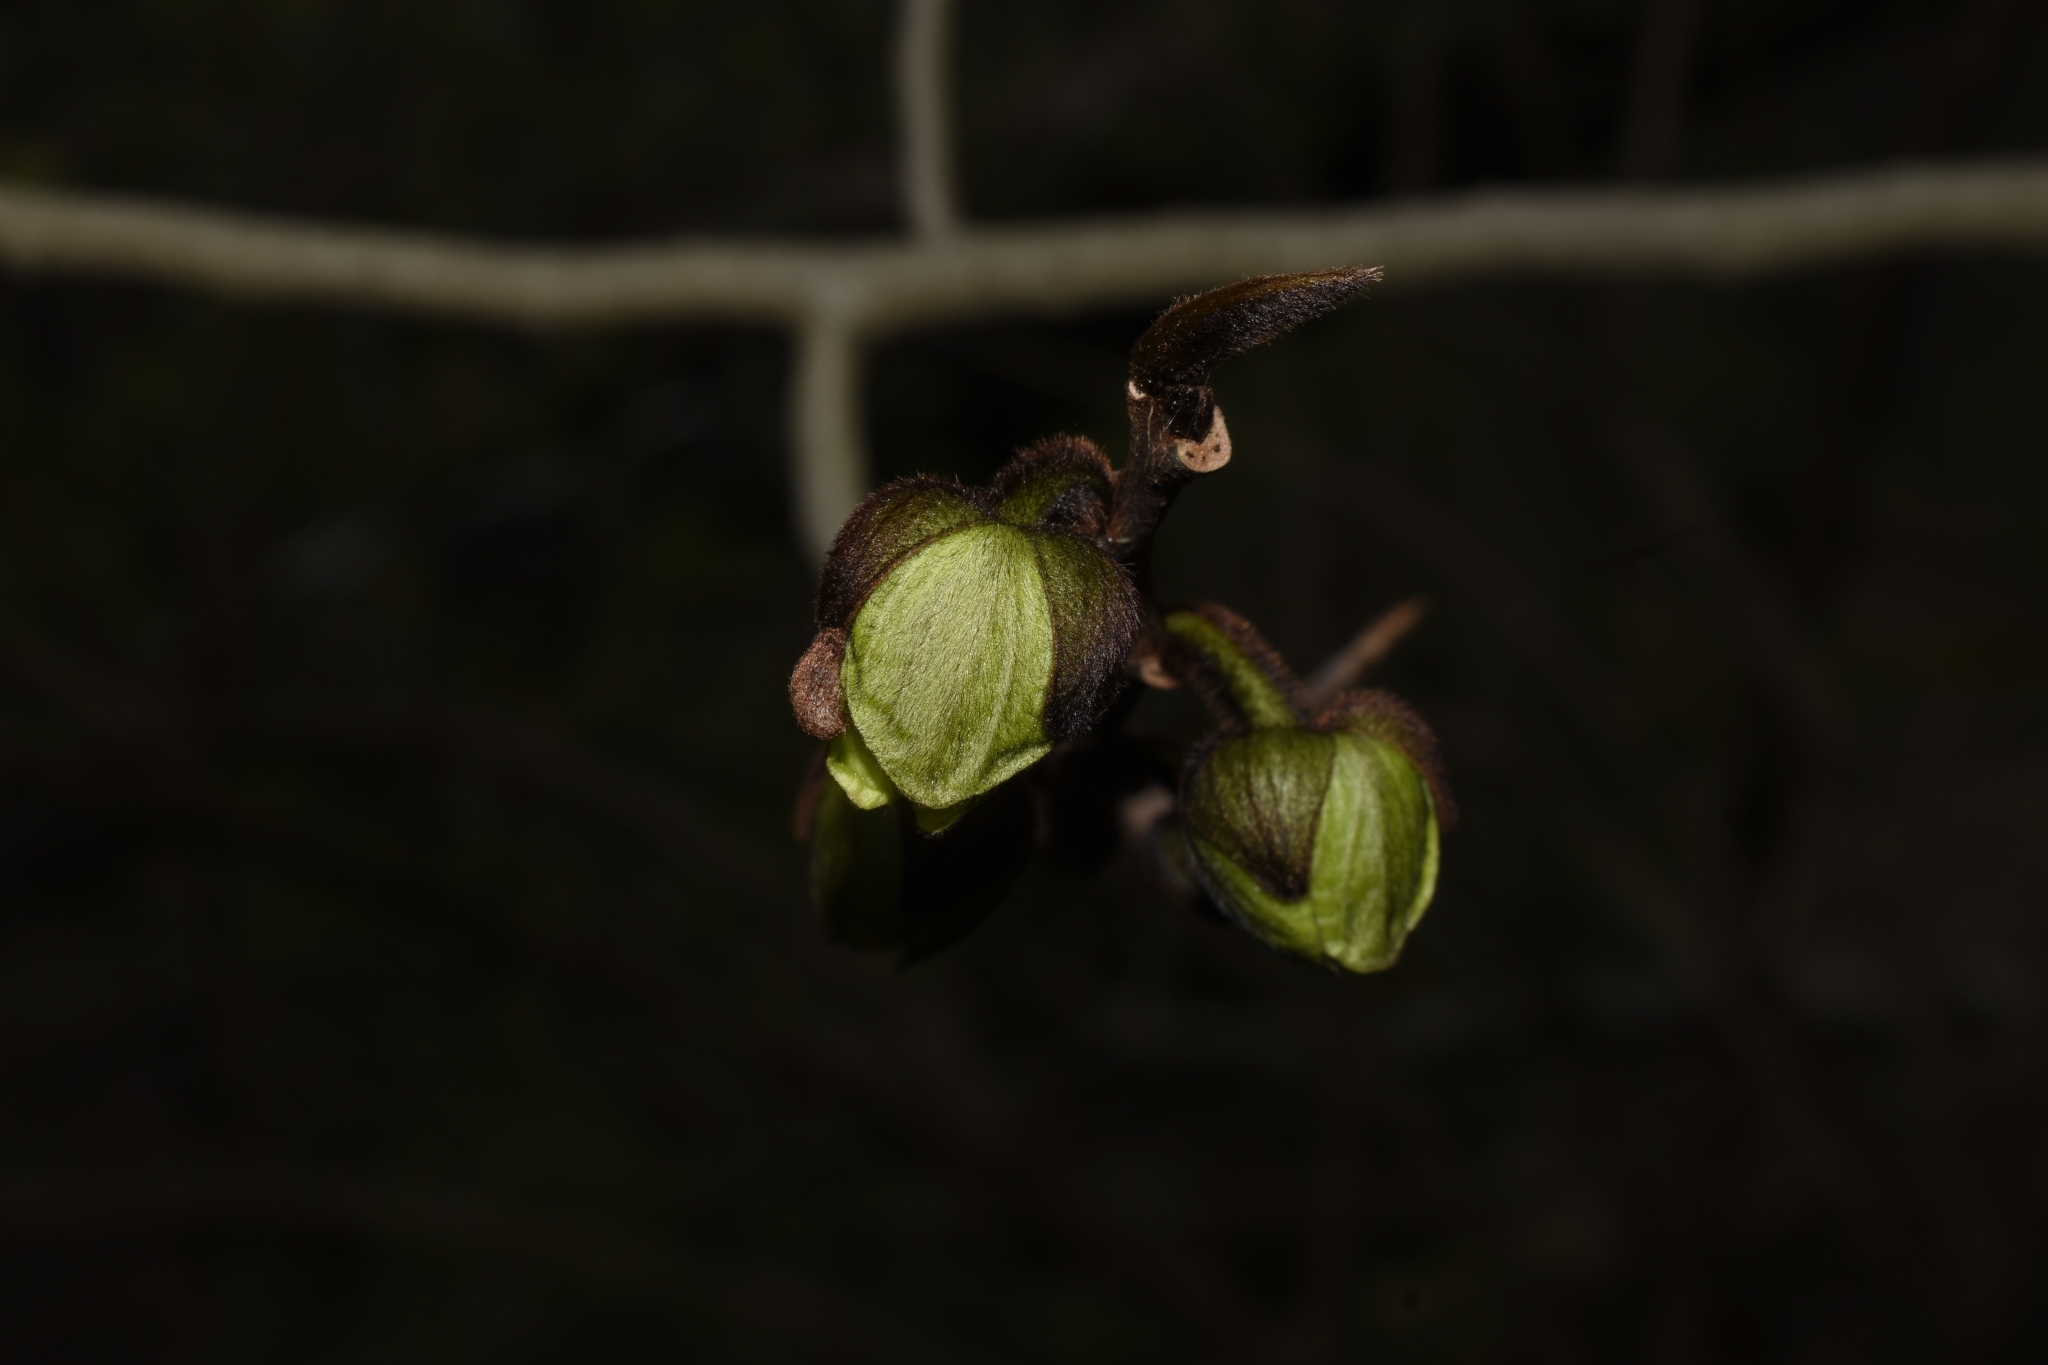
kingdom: Plantae
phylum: Tracheophyta
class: Magnoliopsida
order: Magnoliales
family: Annonaceae
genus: Asimina
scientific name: Asimina triloba
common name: Dog-banana
